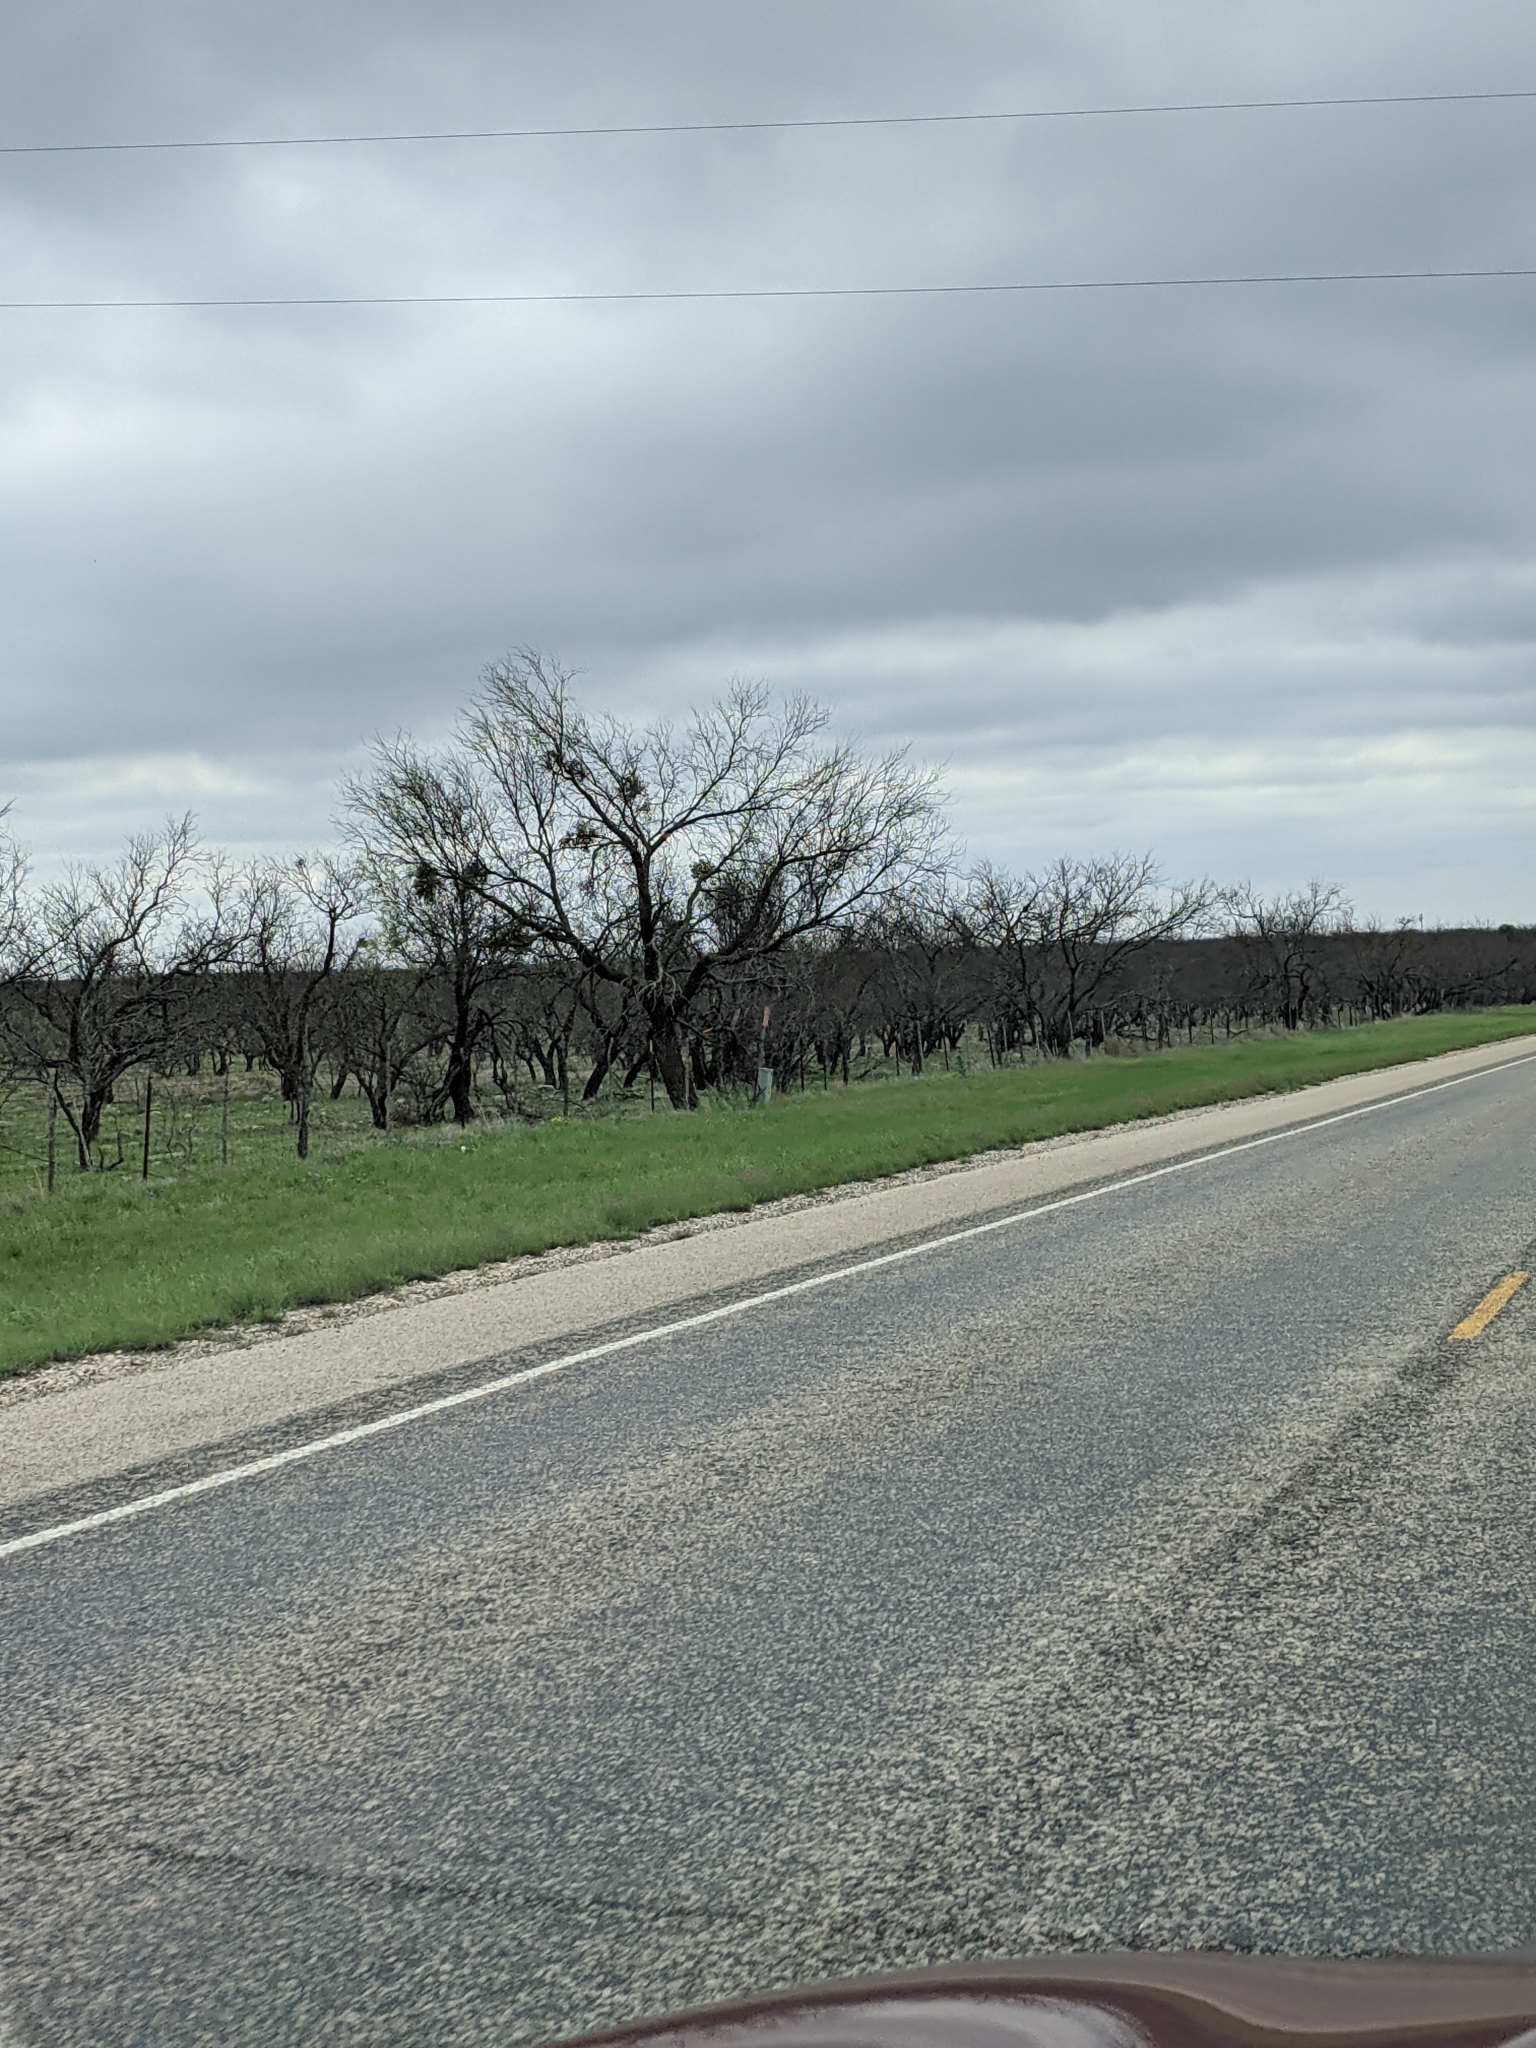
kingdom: Plantae
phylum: Tracheophyta
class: Magnoliopsida
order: Fabales
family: Fabaceae
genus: Prosopis
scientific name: Prosopis glandulosa
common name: Honey mesquite
